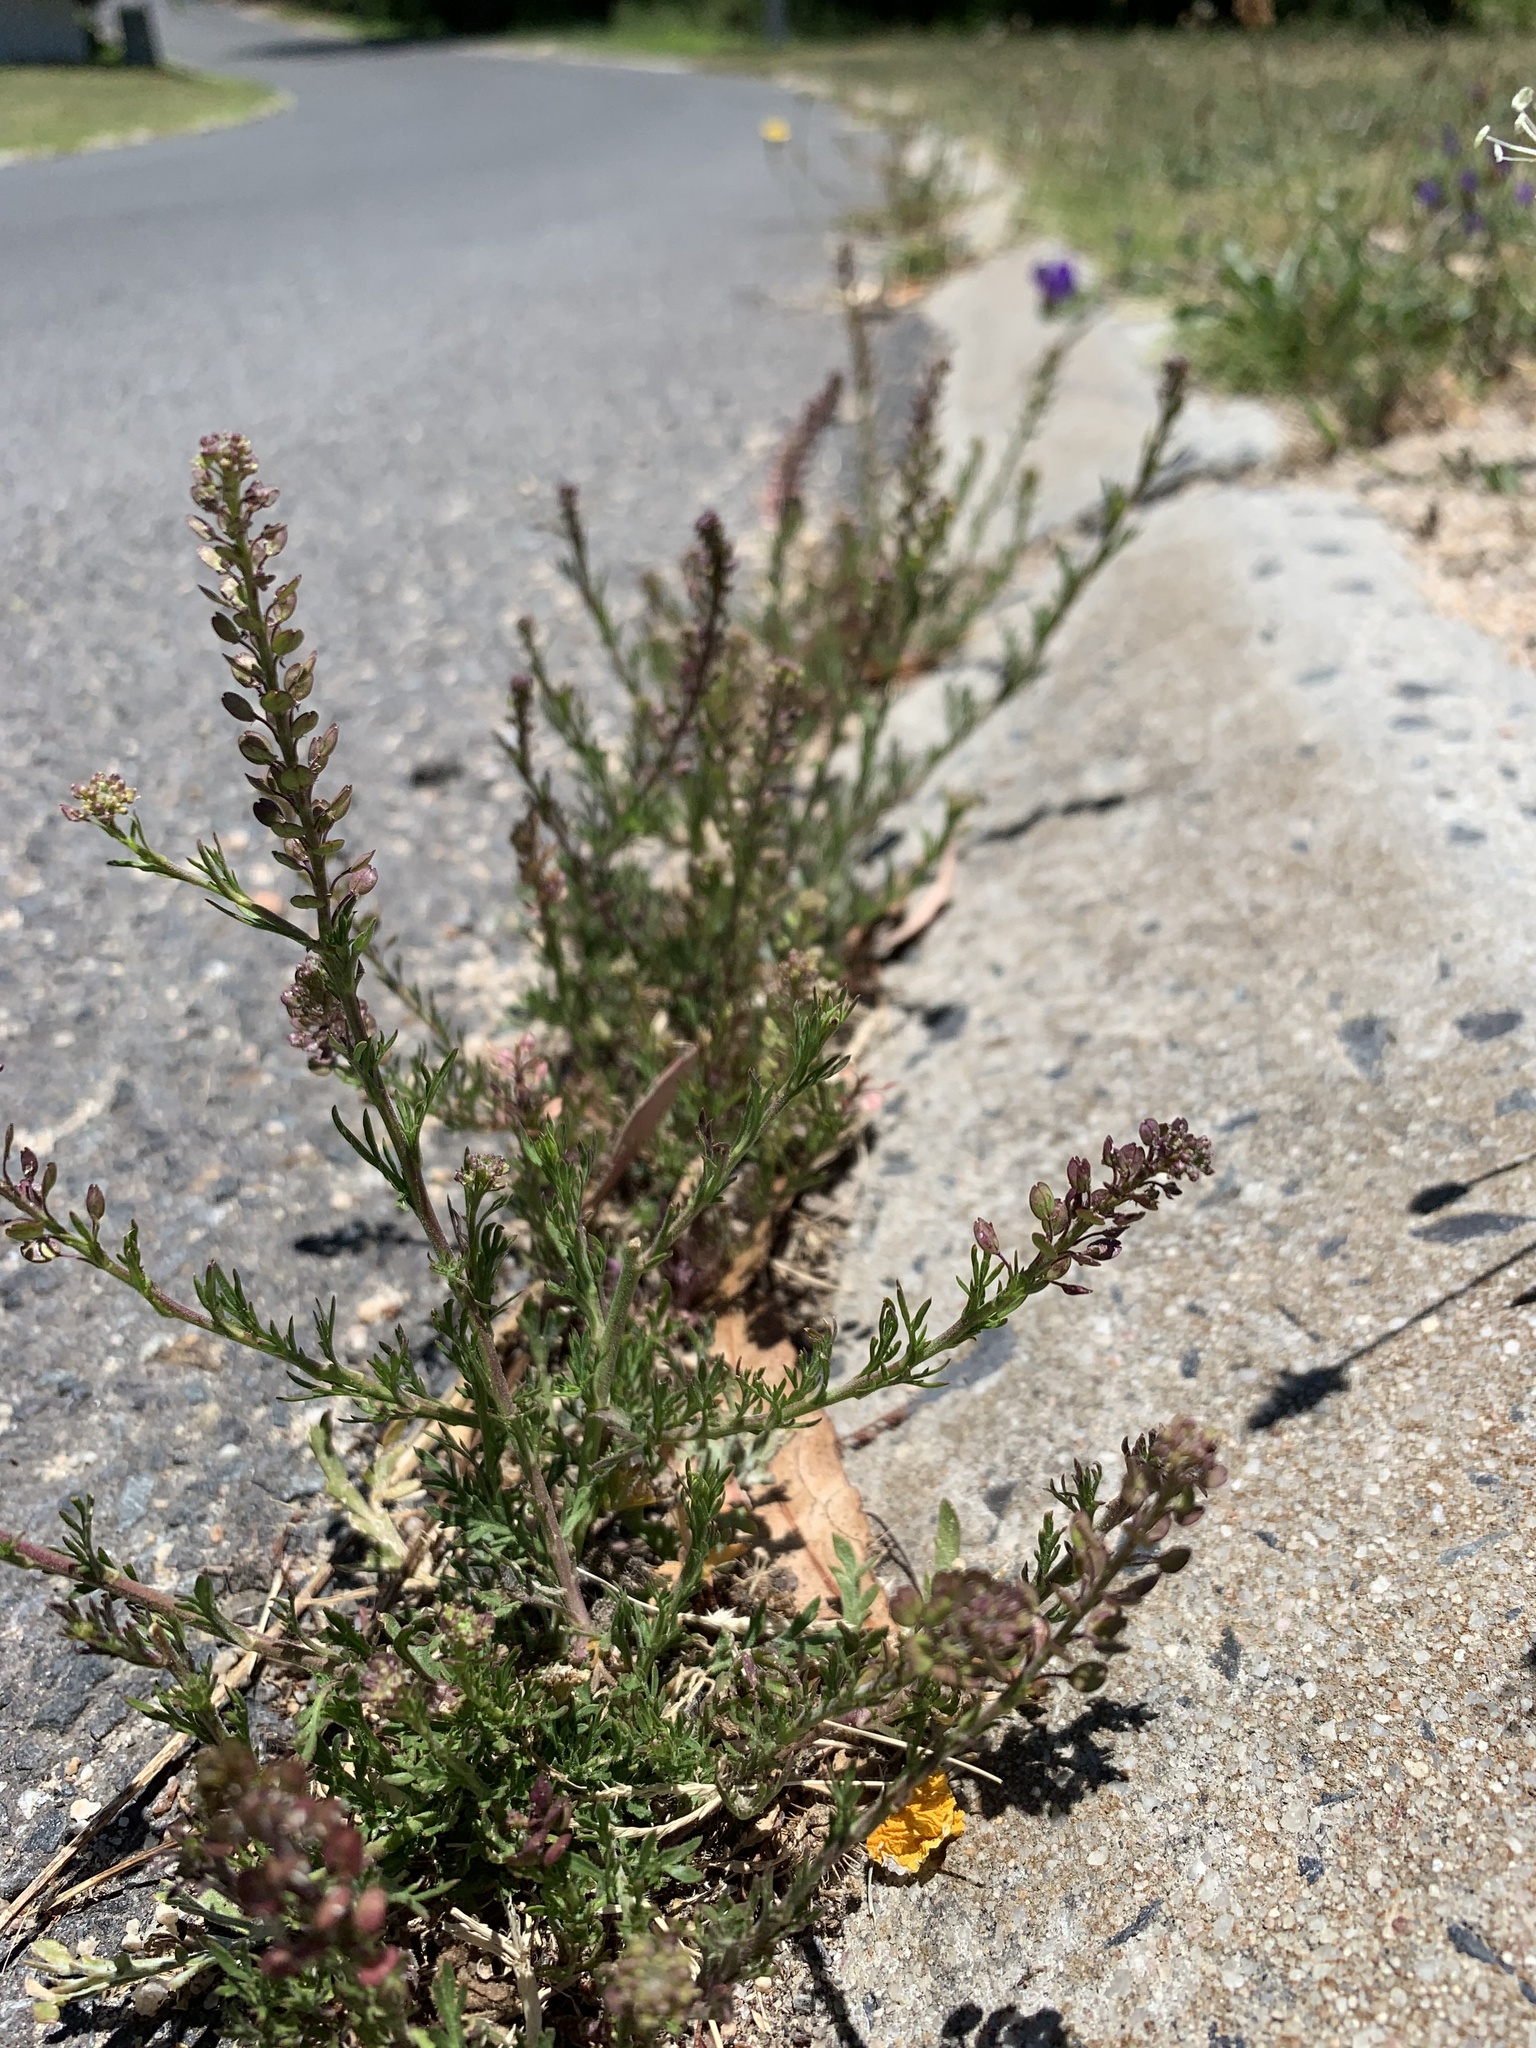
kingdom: Plantae
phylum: Tracheophyta
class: Magnoliopsida
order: Brassicales
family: Brassicaceae
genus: Lepidium
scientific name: Lepidium bonariense
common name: Argentine pepperwort
